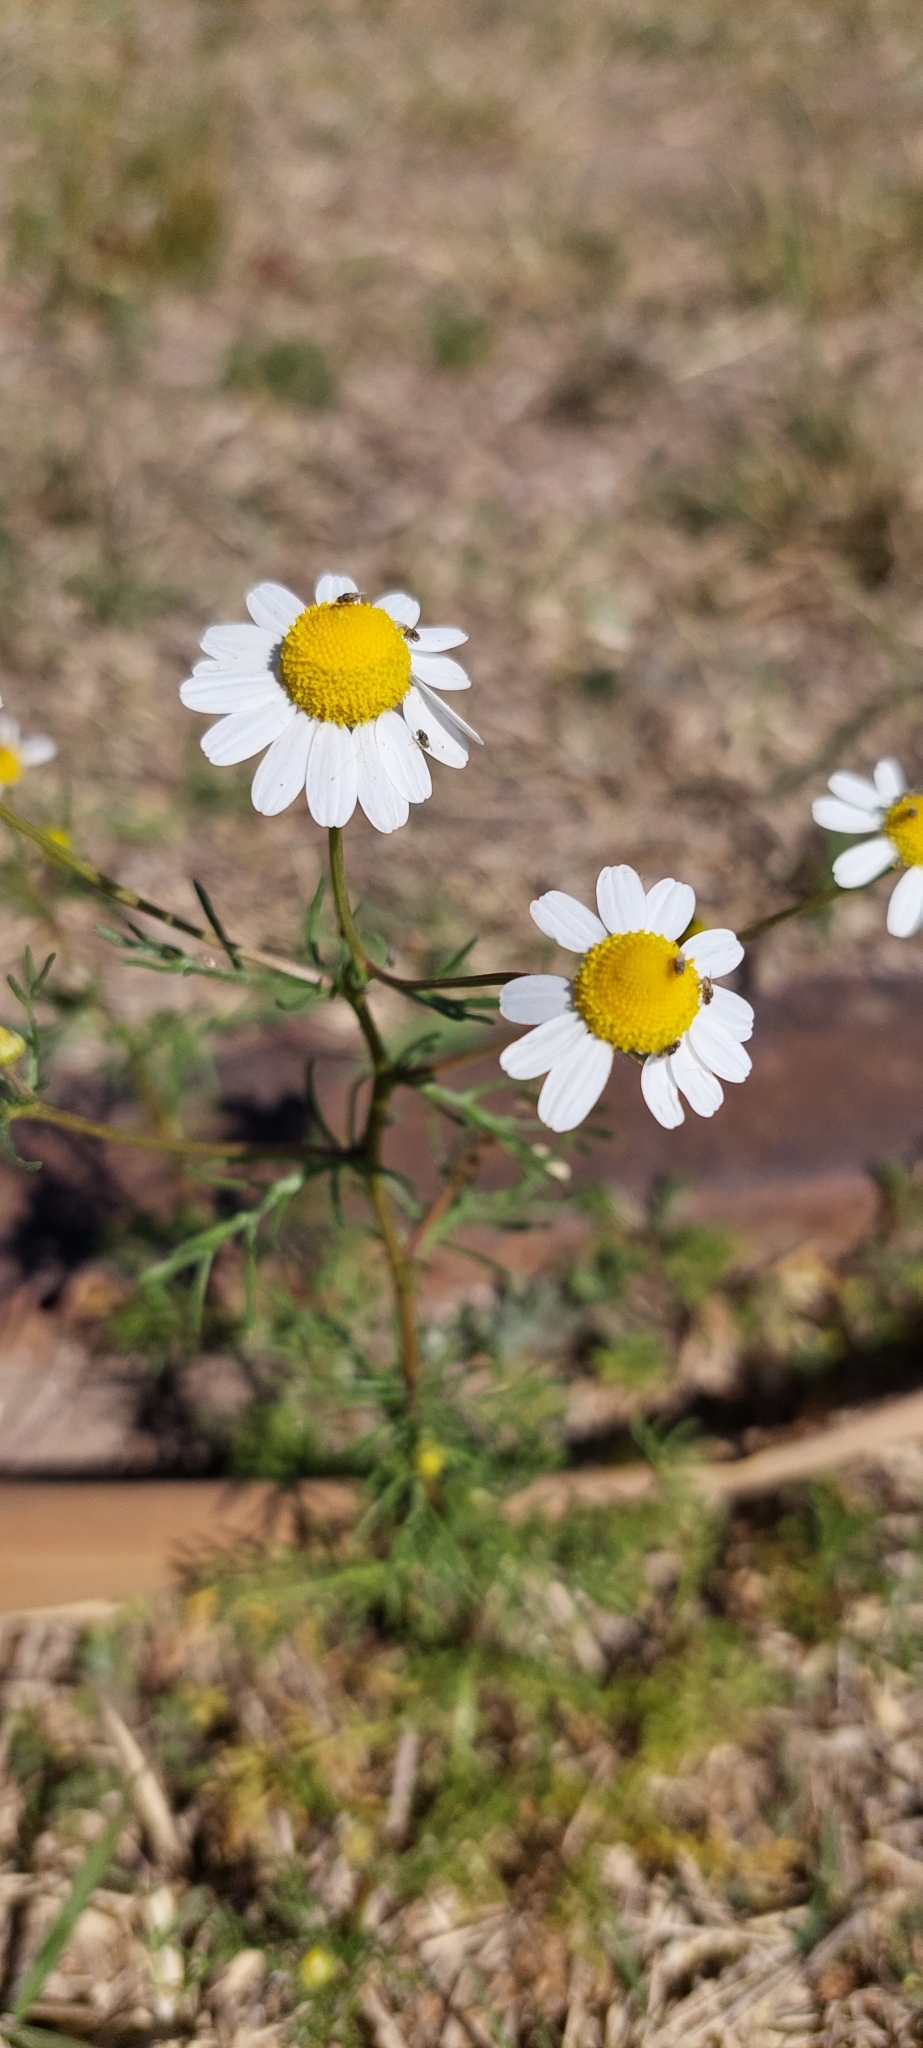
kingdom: Plantae
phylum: Tracheophyta
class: Magnoliopsida
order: Asterales
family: Asteraceae
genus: Matricaria
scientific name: Matricaria chamomilla
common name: Scented mayweed
